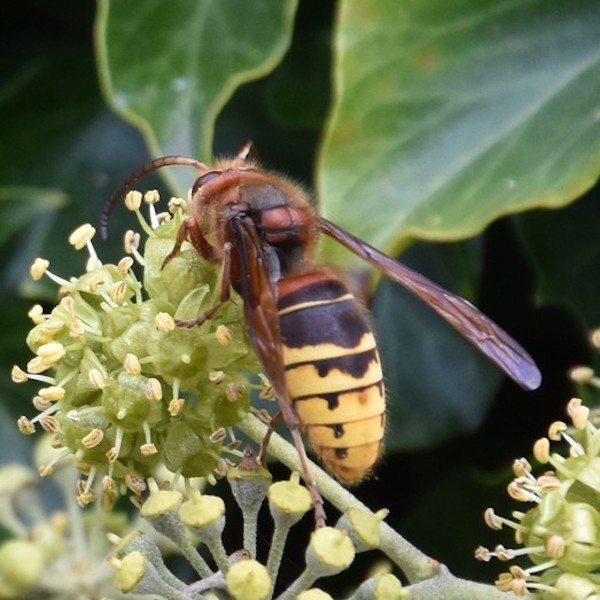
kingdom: Animalia
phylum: Arthropoda
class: Insecta
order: Hymenoptera
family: Vespidae
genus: Vespa
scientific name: Vespa crabro
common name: Hornet
